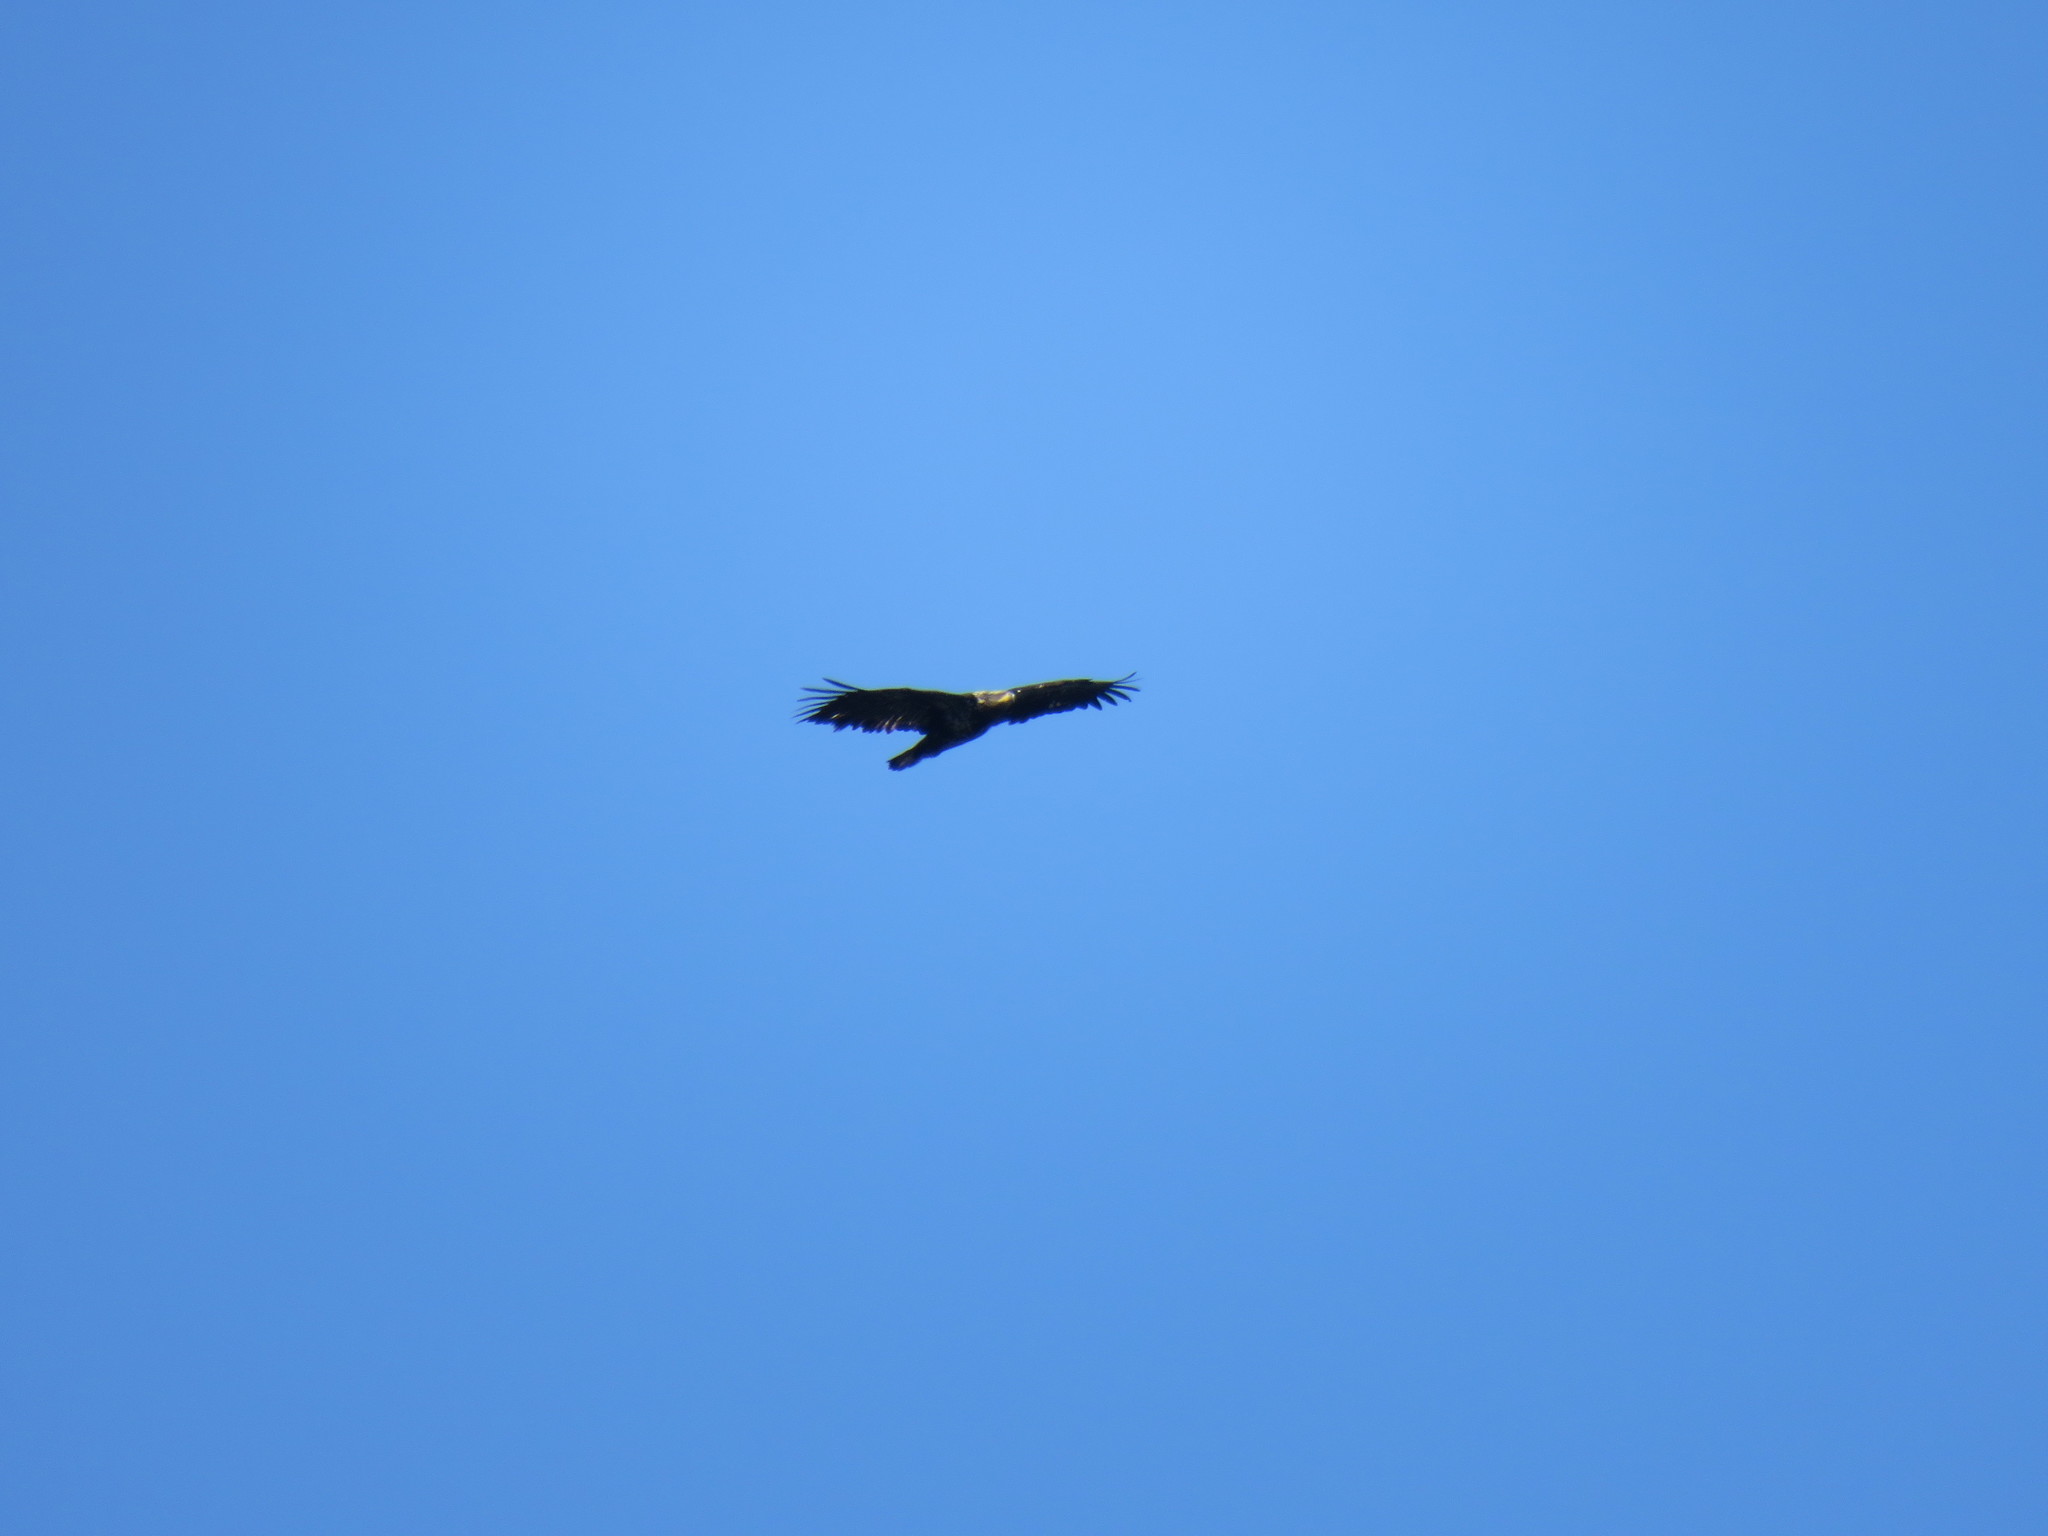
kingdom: Animalia
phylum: Chordata
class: Aves
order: Accipitriformes
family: Accipitridae
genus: Haliaeetus
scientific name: Haliaeetus leucocephalus
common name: Bald eagle
